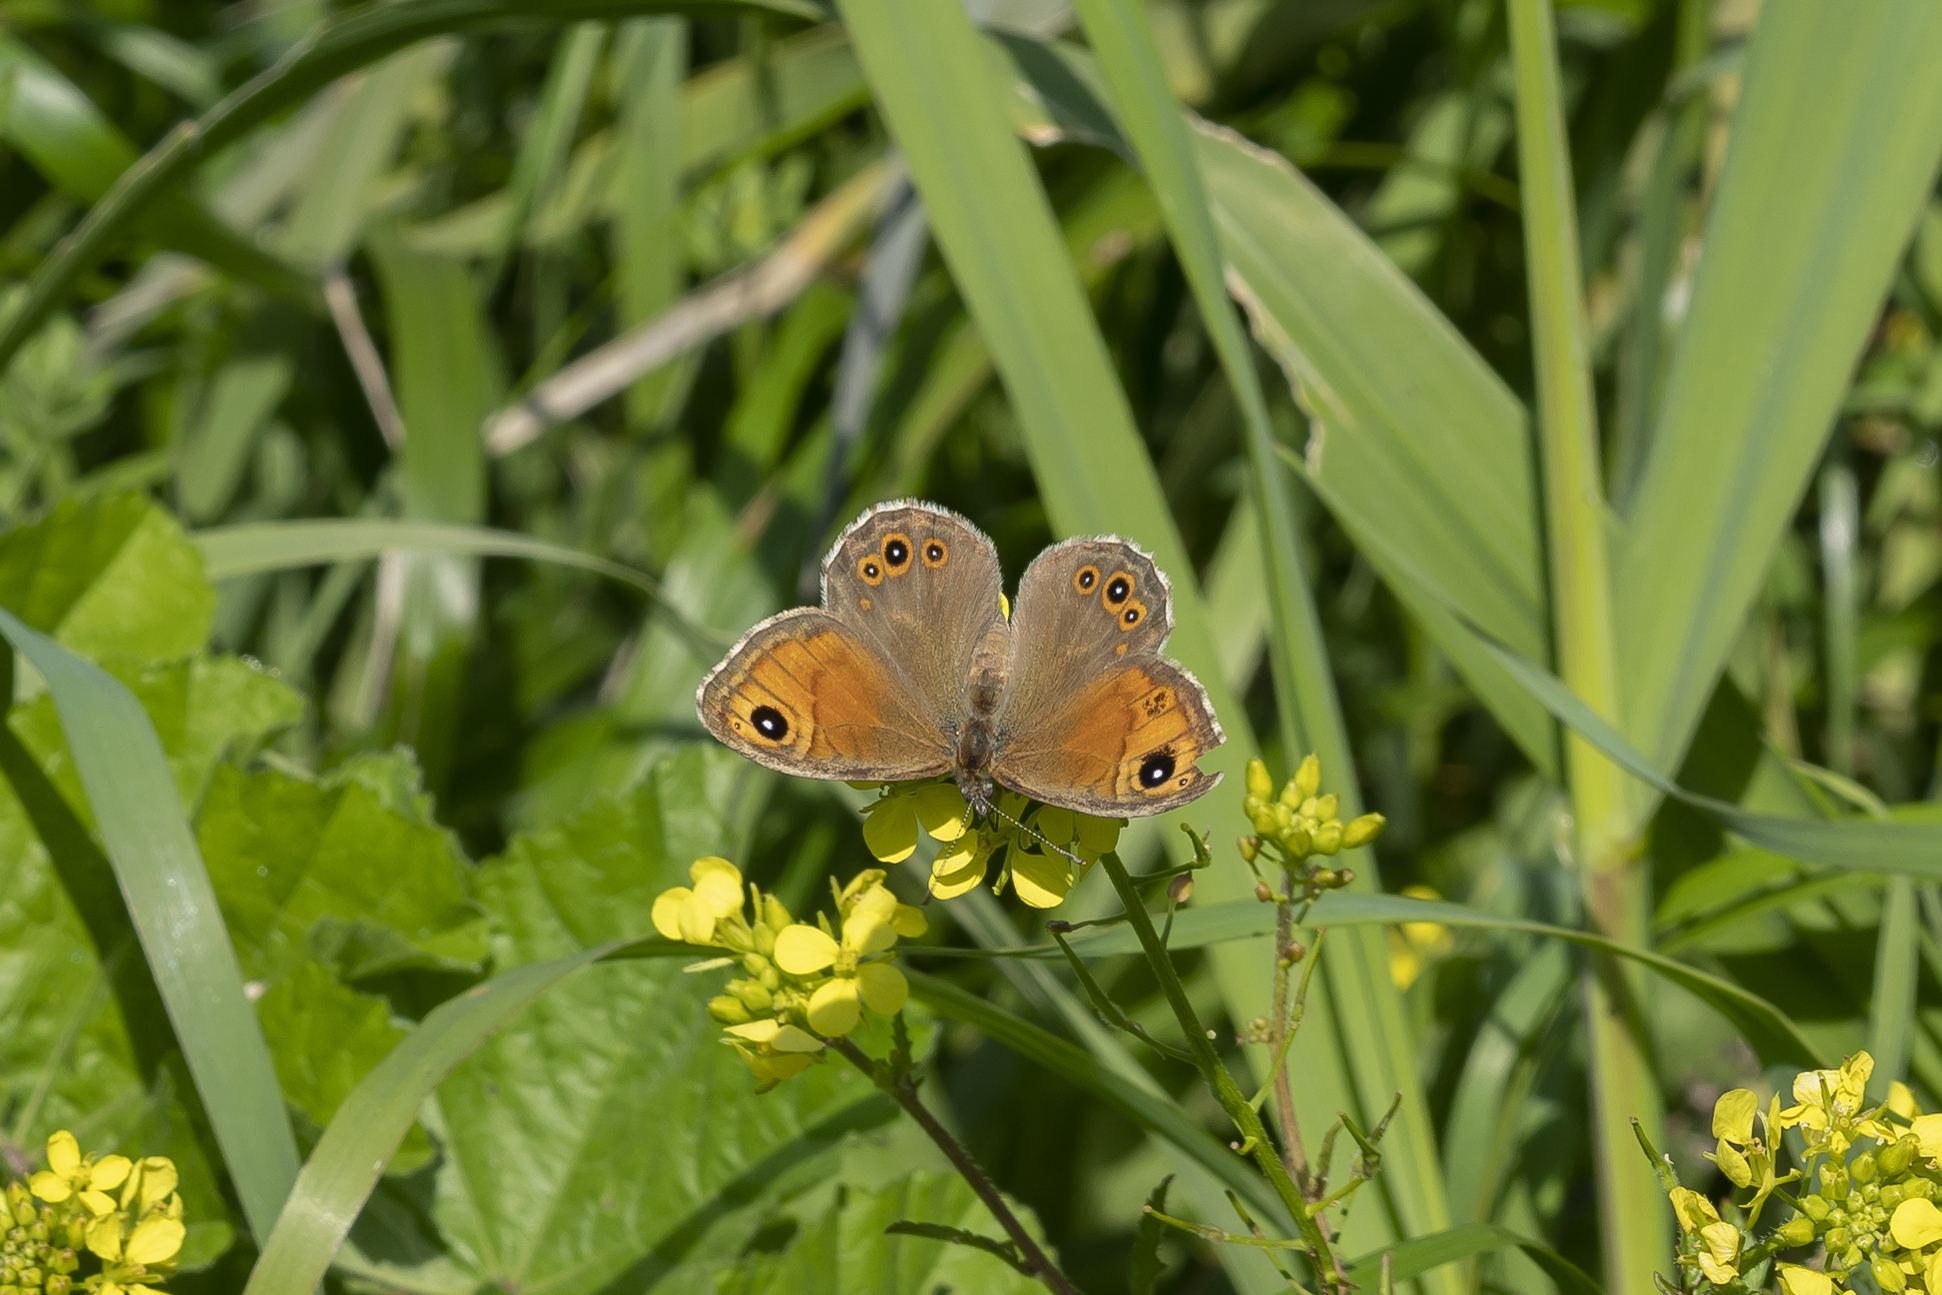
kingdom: Animalia
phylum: Arthropoda
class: Insecta
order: Lepidoptera
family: Nymphalidae
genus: Pararge
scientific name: Pararge Lasiommata maera
